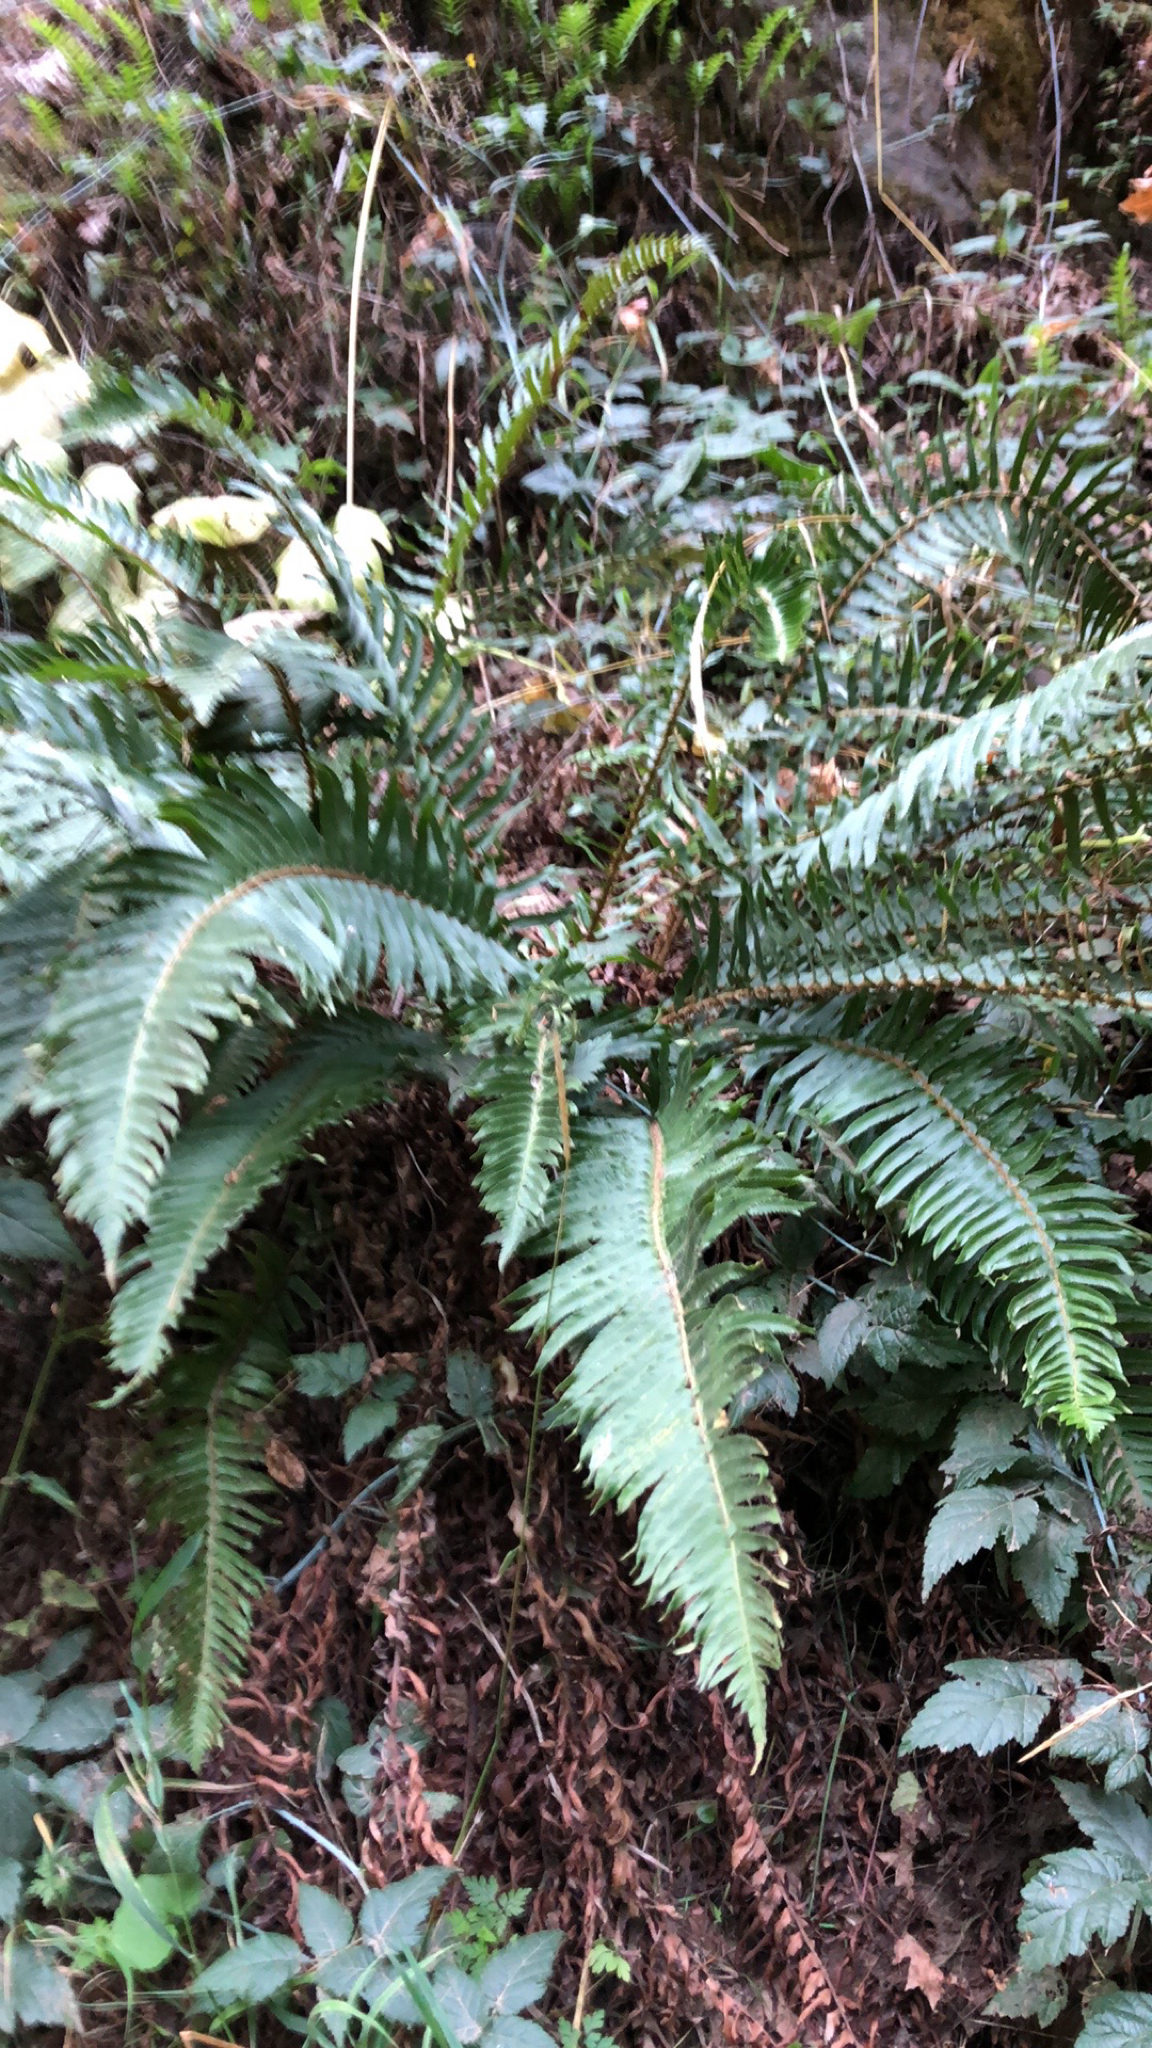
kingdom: Plantae
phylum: Tracheophyta
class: Polypodiopsida
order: Polypodiales
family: Dryopteridaceae
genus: Polystichum
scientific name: Polystichum munitum
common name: Western sword-fern
